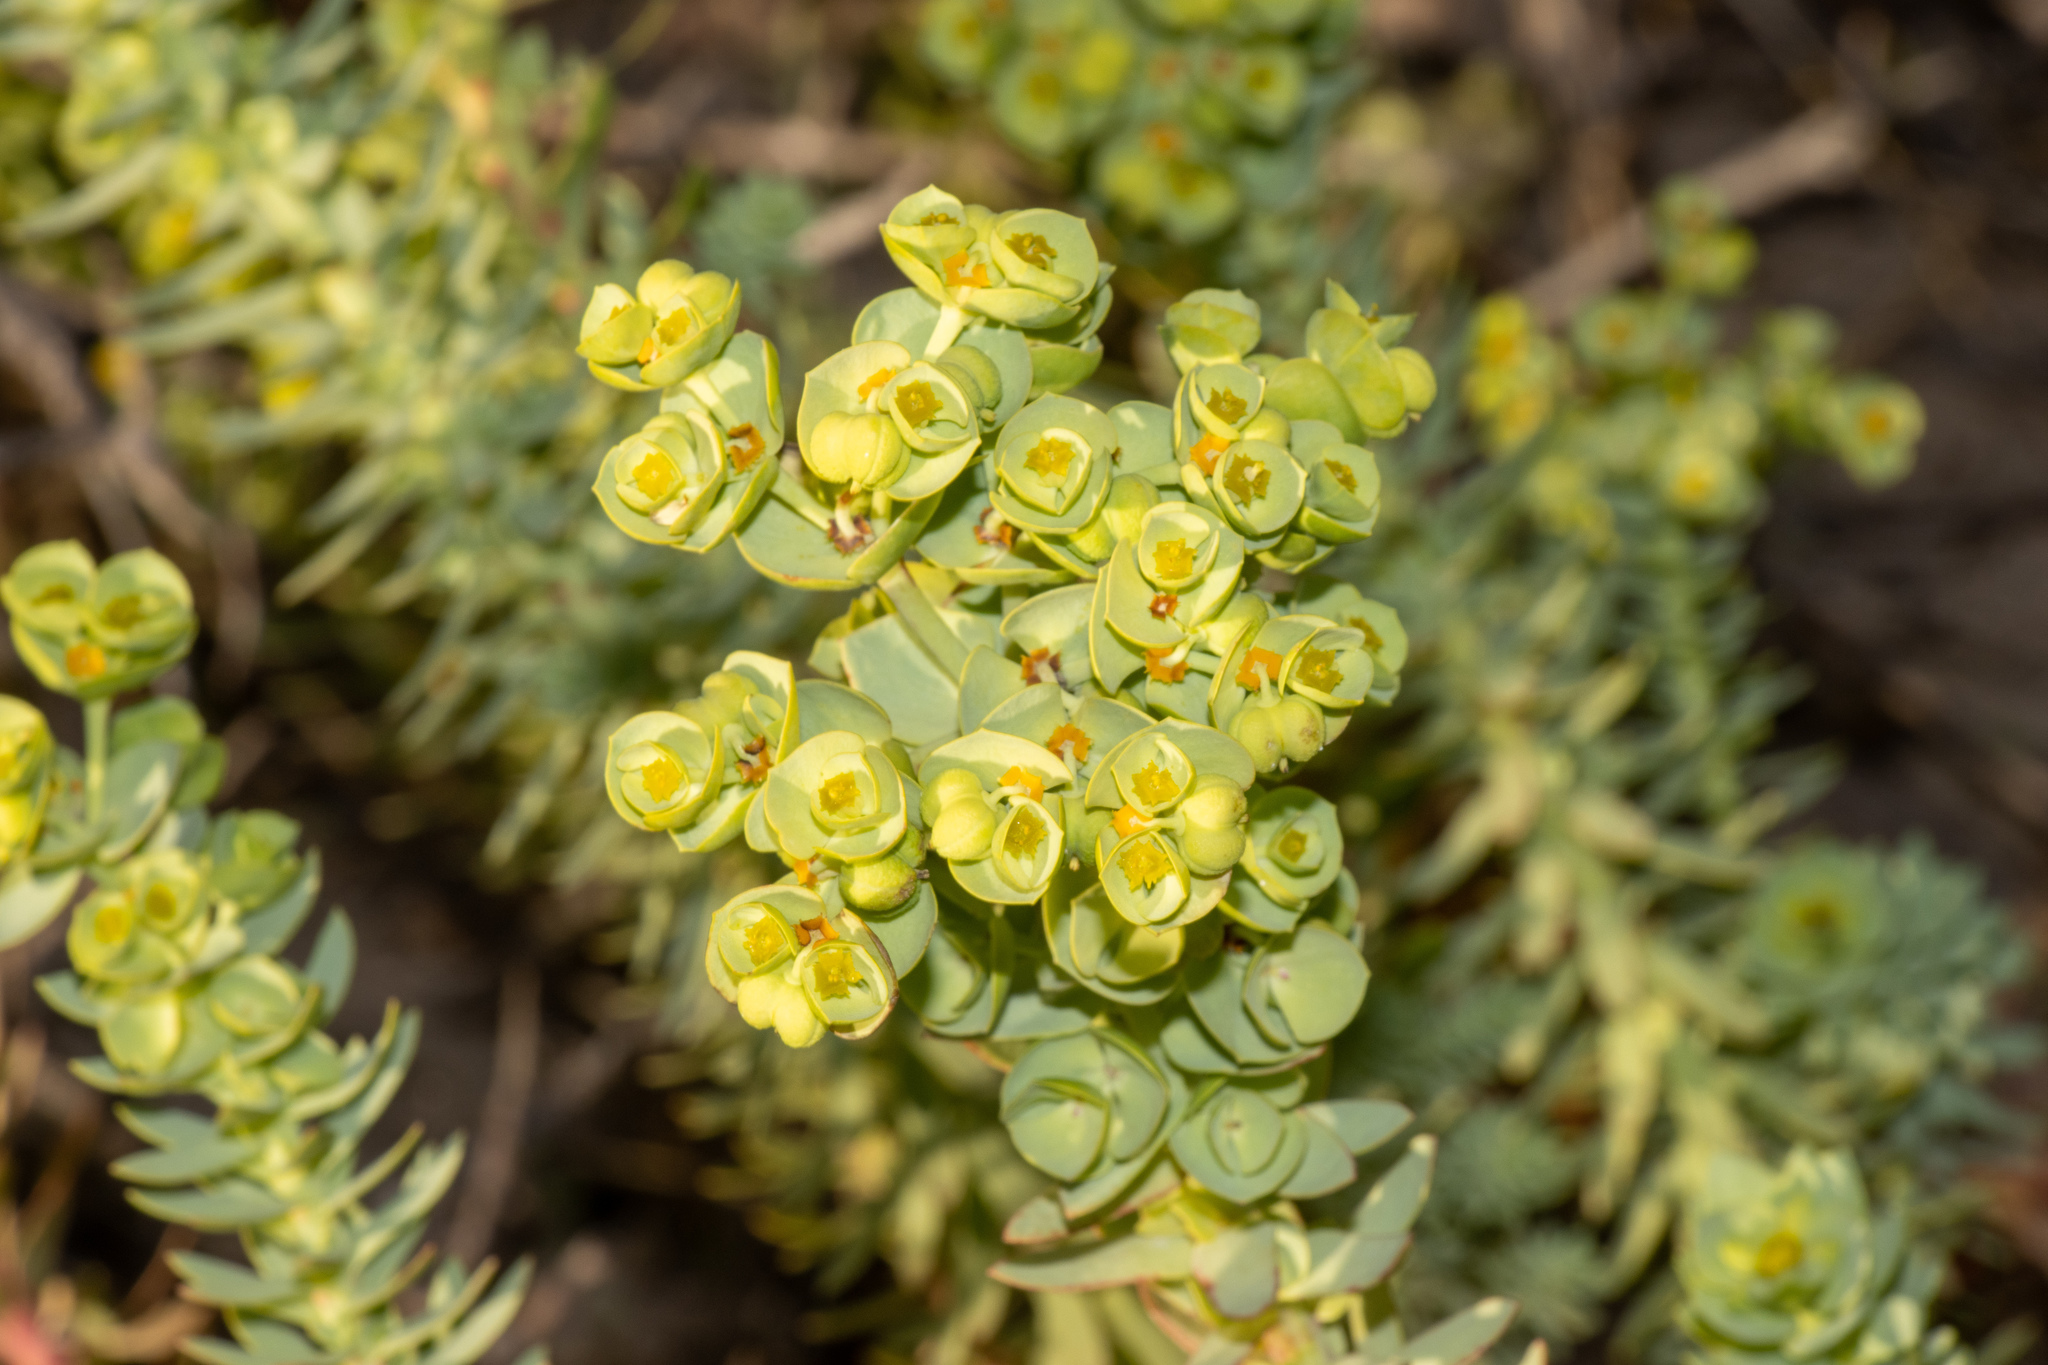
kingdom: Plantae
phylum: Tracheophyta
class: Magnoliopsida
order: Malpighiales
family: Euphorbiaceae
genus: Euphorbia
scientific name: Euphorbia paralias
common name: Sea spurge
